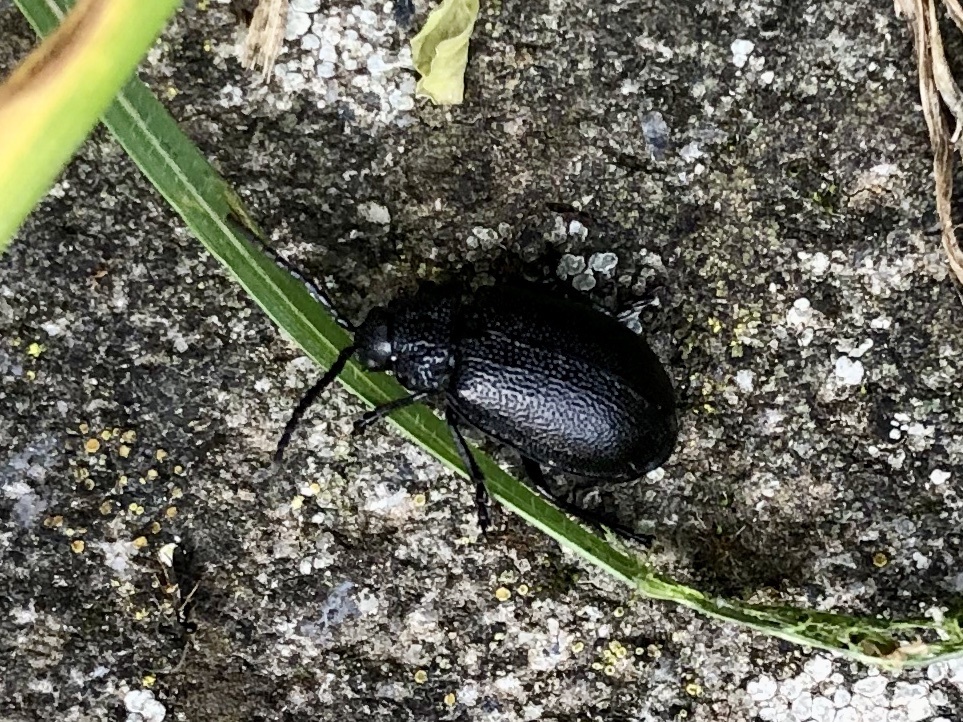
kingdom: Animalia
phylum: Arthropoda
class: Insecta
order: Coleoptera
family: Chrysomelidae
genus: Galeruca
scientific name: Galeruca tanaceti
